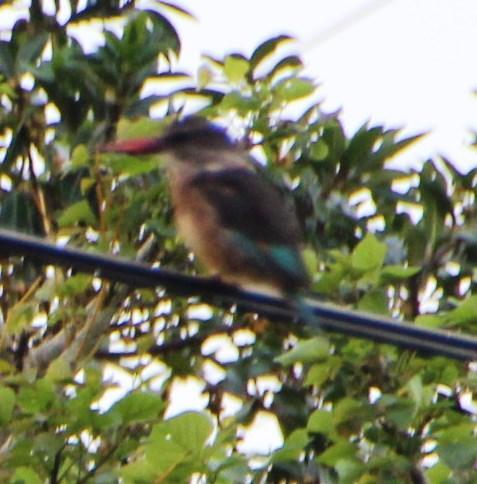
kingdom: Animalia
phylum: Chordata
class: Aves
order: Coraciiformes
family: Alcedinidae
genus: Halcyon
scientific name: Halcyon albiventris
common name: Brown-hooded kingfisher
